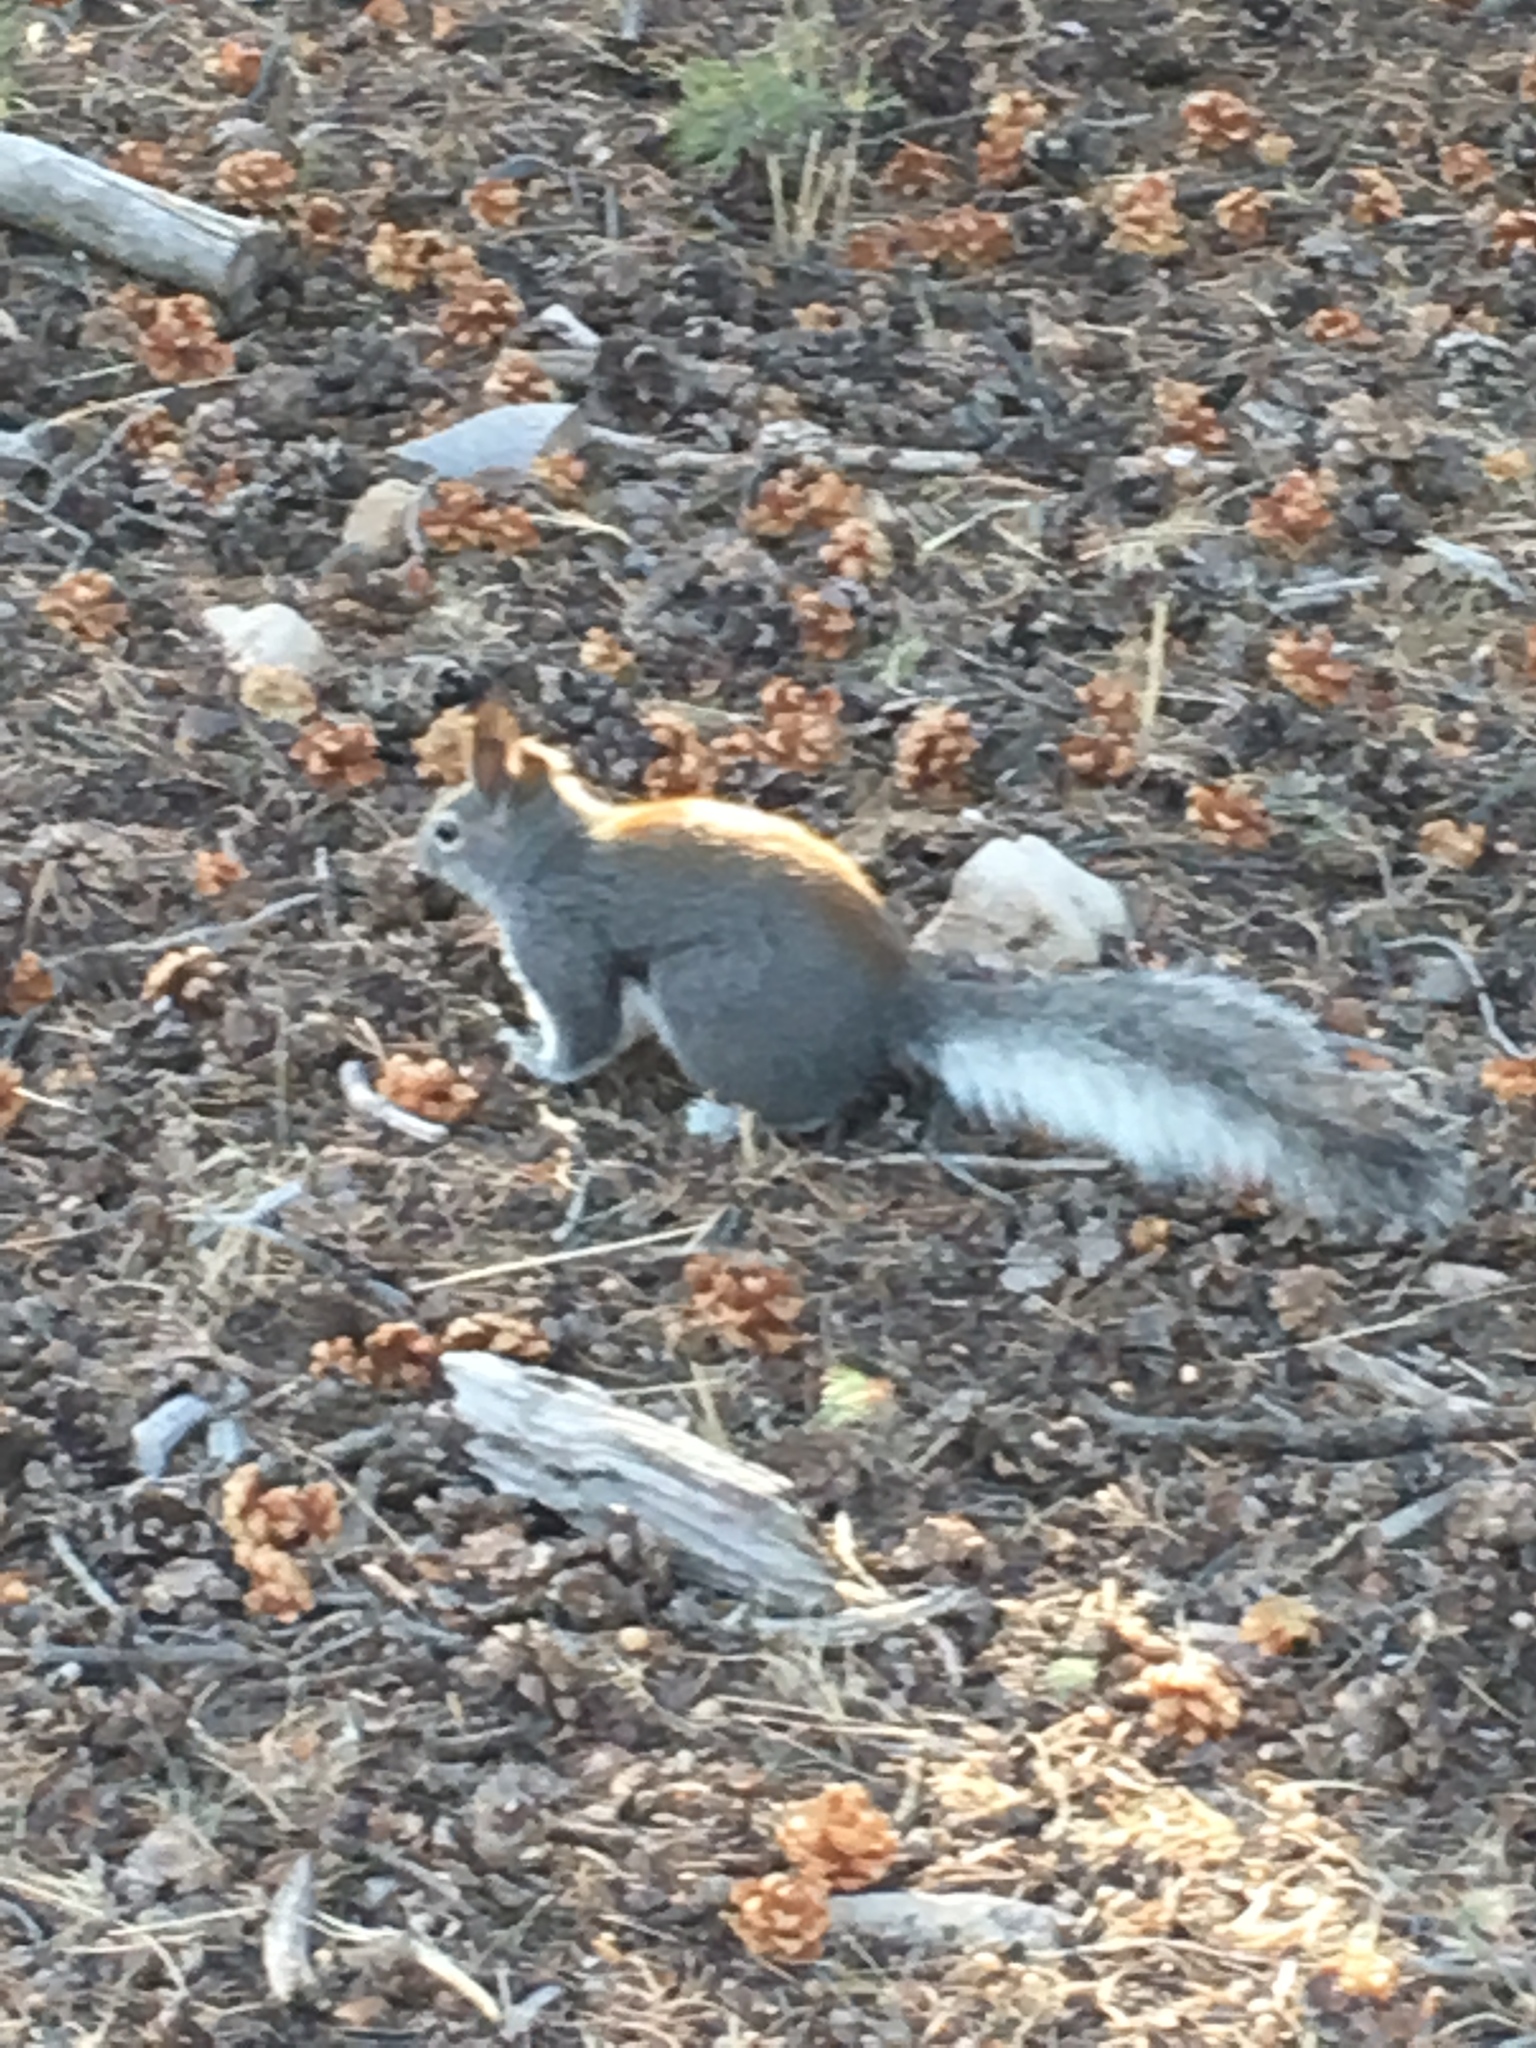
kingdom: Animalia
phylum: Chordata
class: Mammalia
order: Rodentia
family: Sciuridae
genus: Sciurus
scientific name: Sciurus aberti
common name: Abert's squirrel
